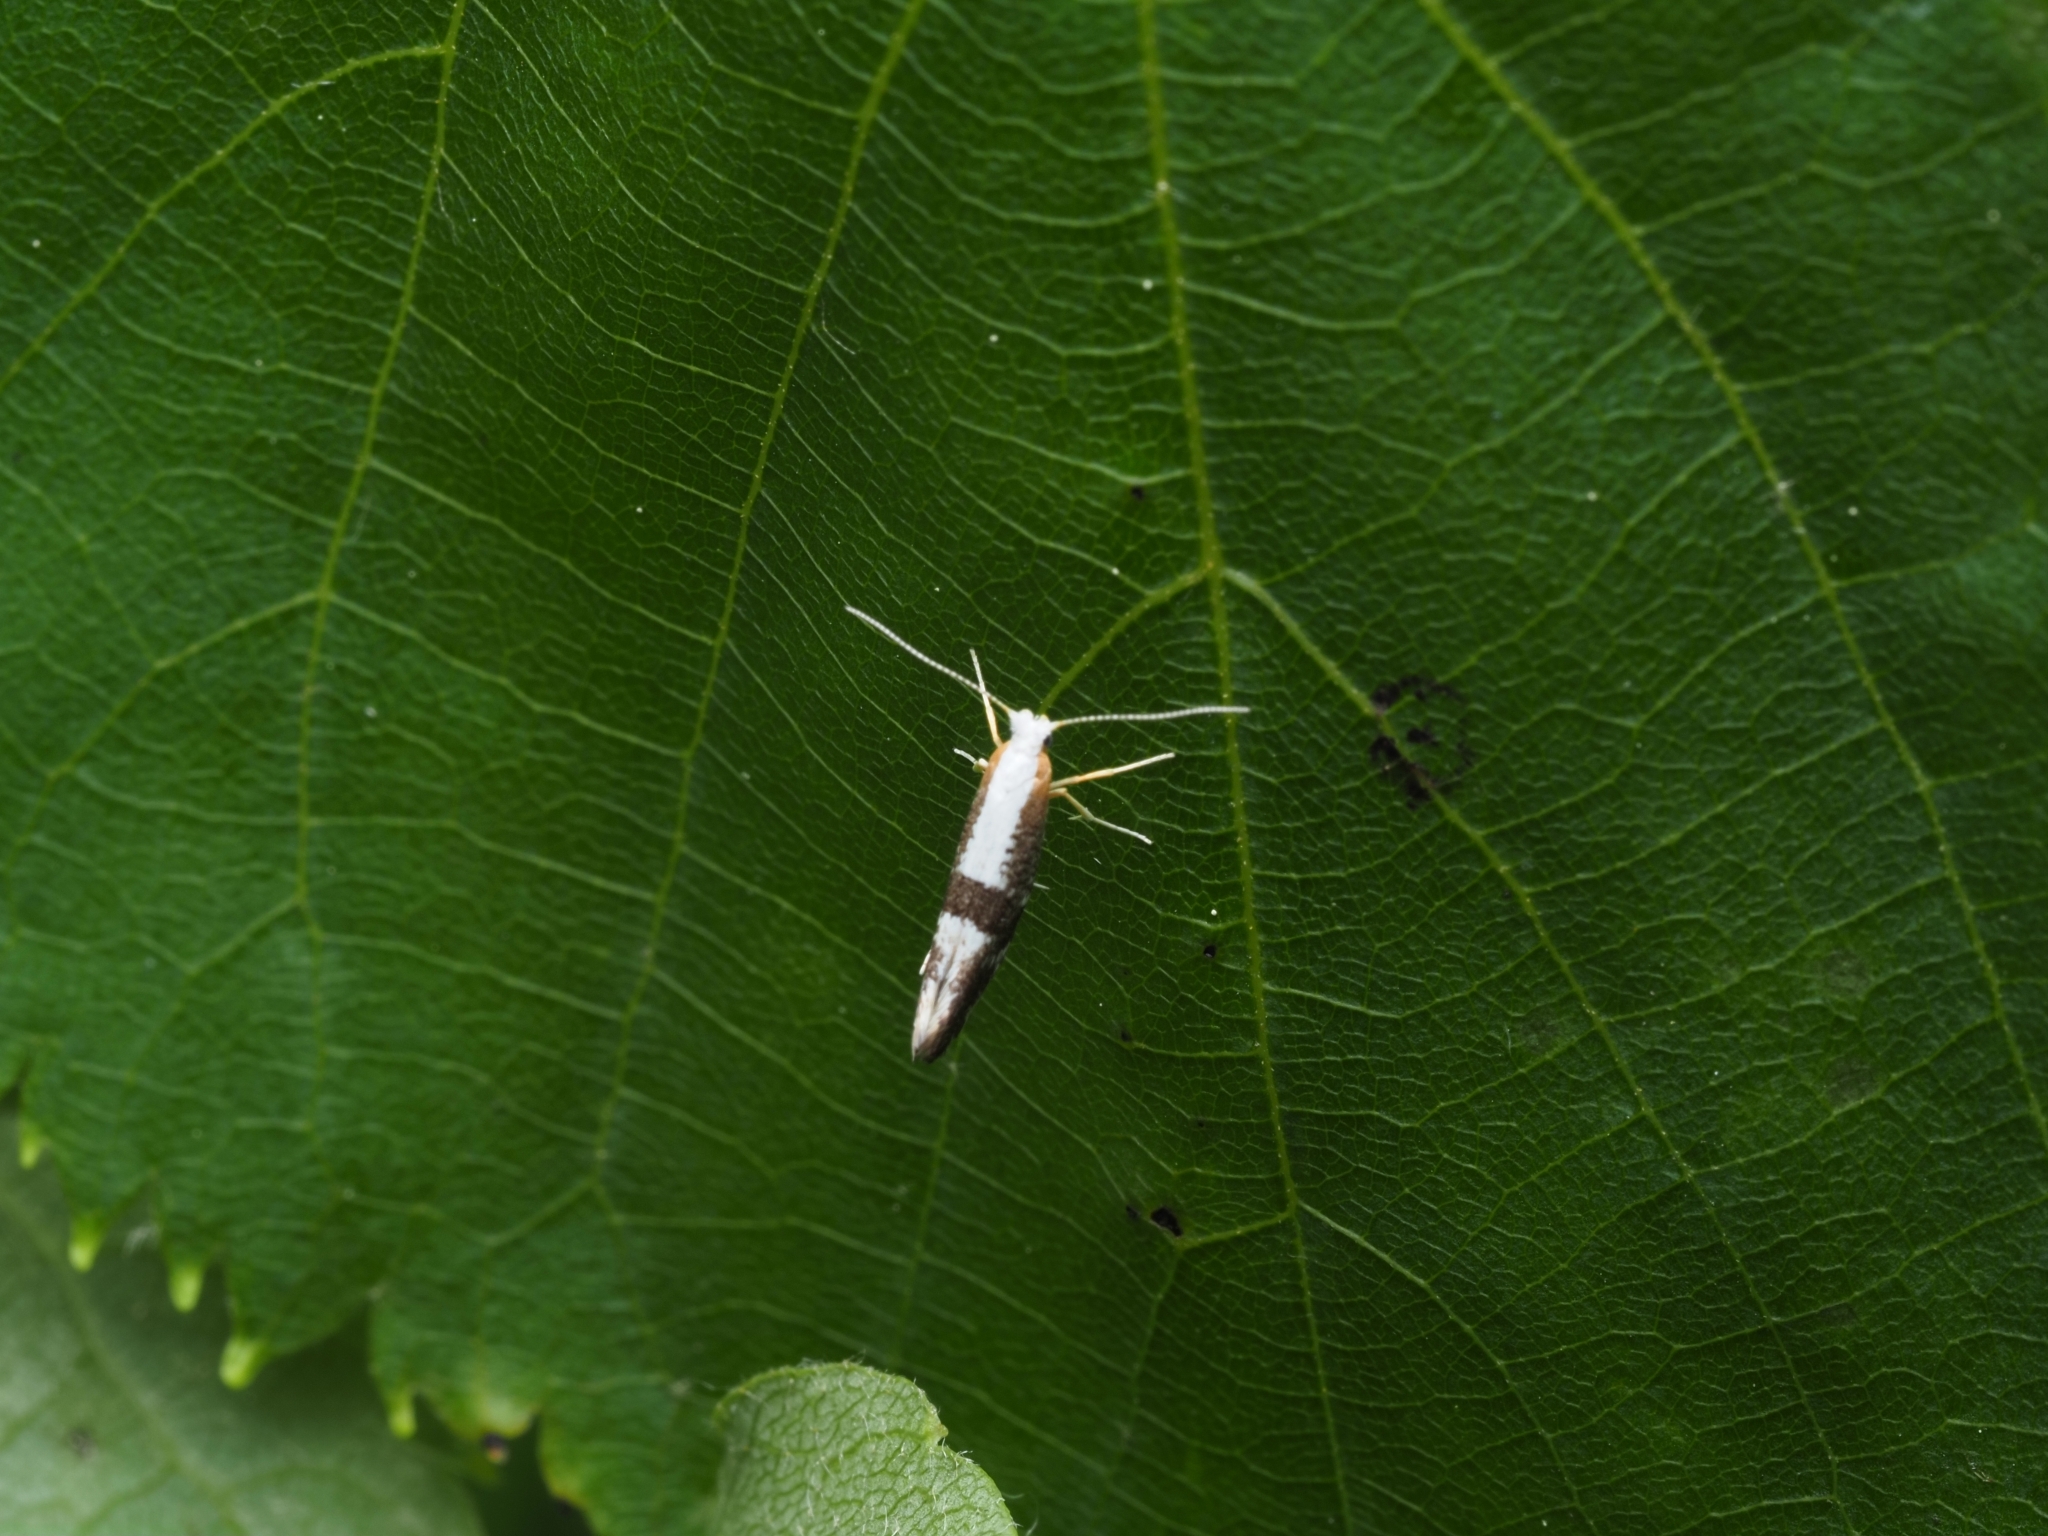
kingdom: Animalia
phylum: Arthropoda
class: Insecta
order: Lepidoptera
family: Argyresthiidae
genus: Argyresthia
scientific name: Argyresthia spinosella
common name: Blackthorn argent
